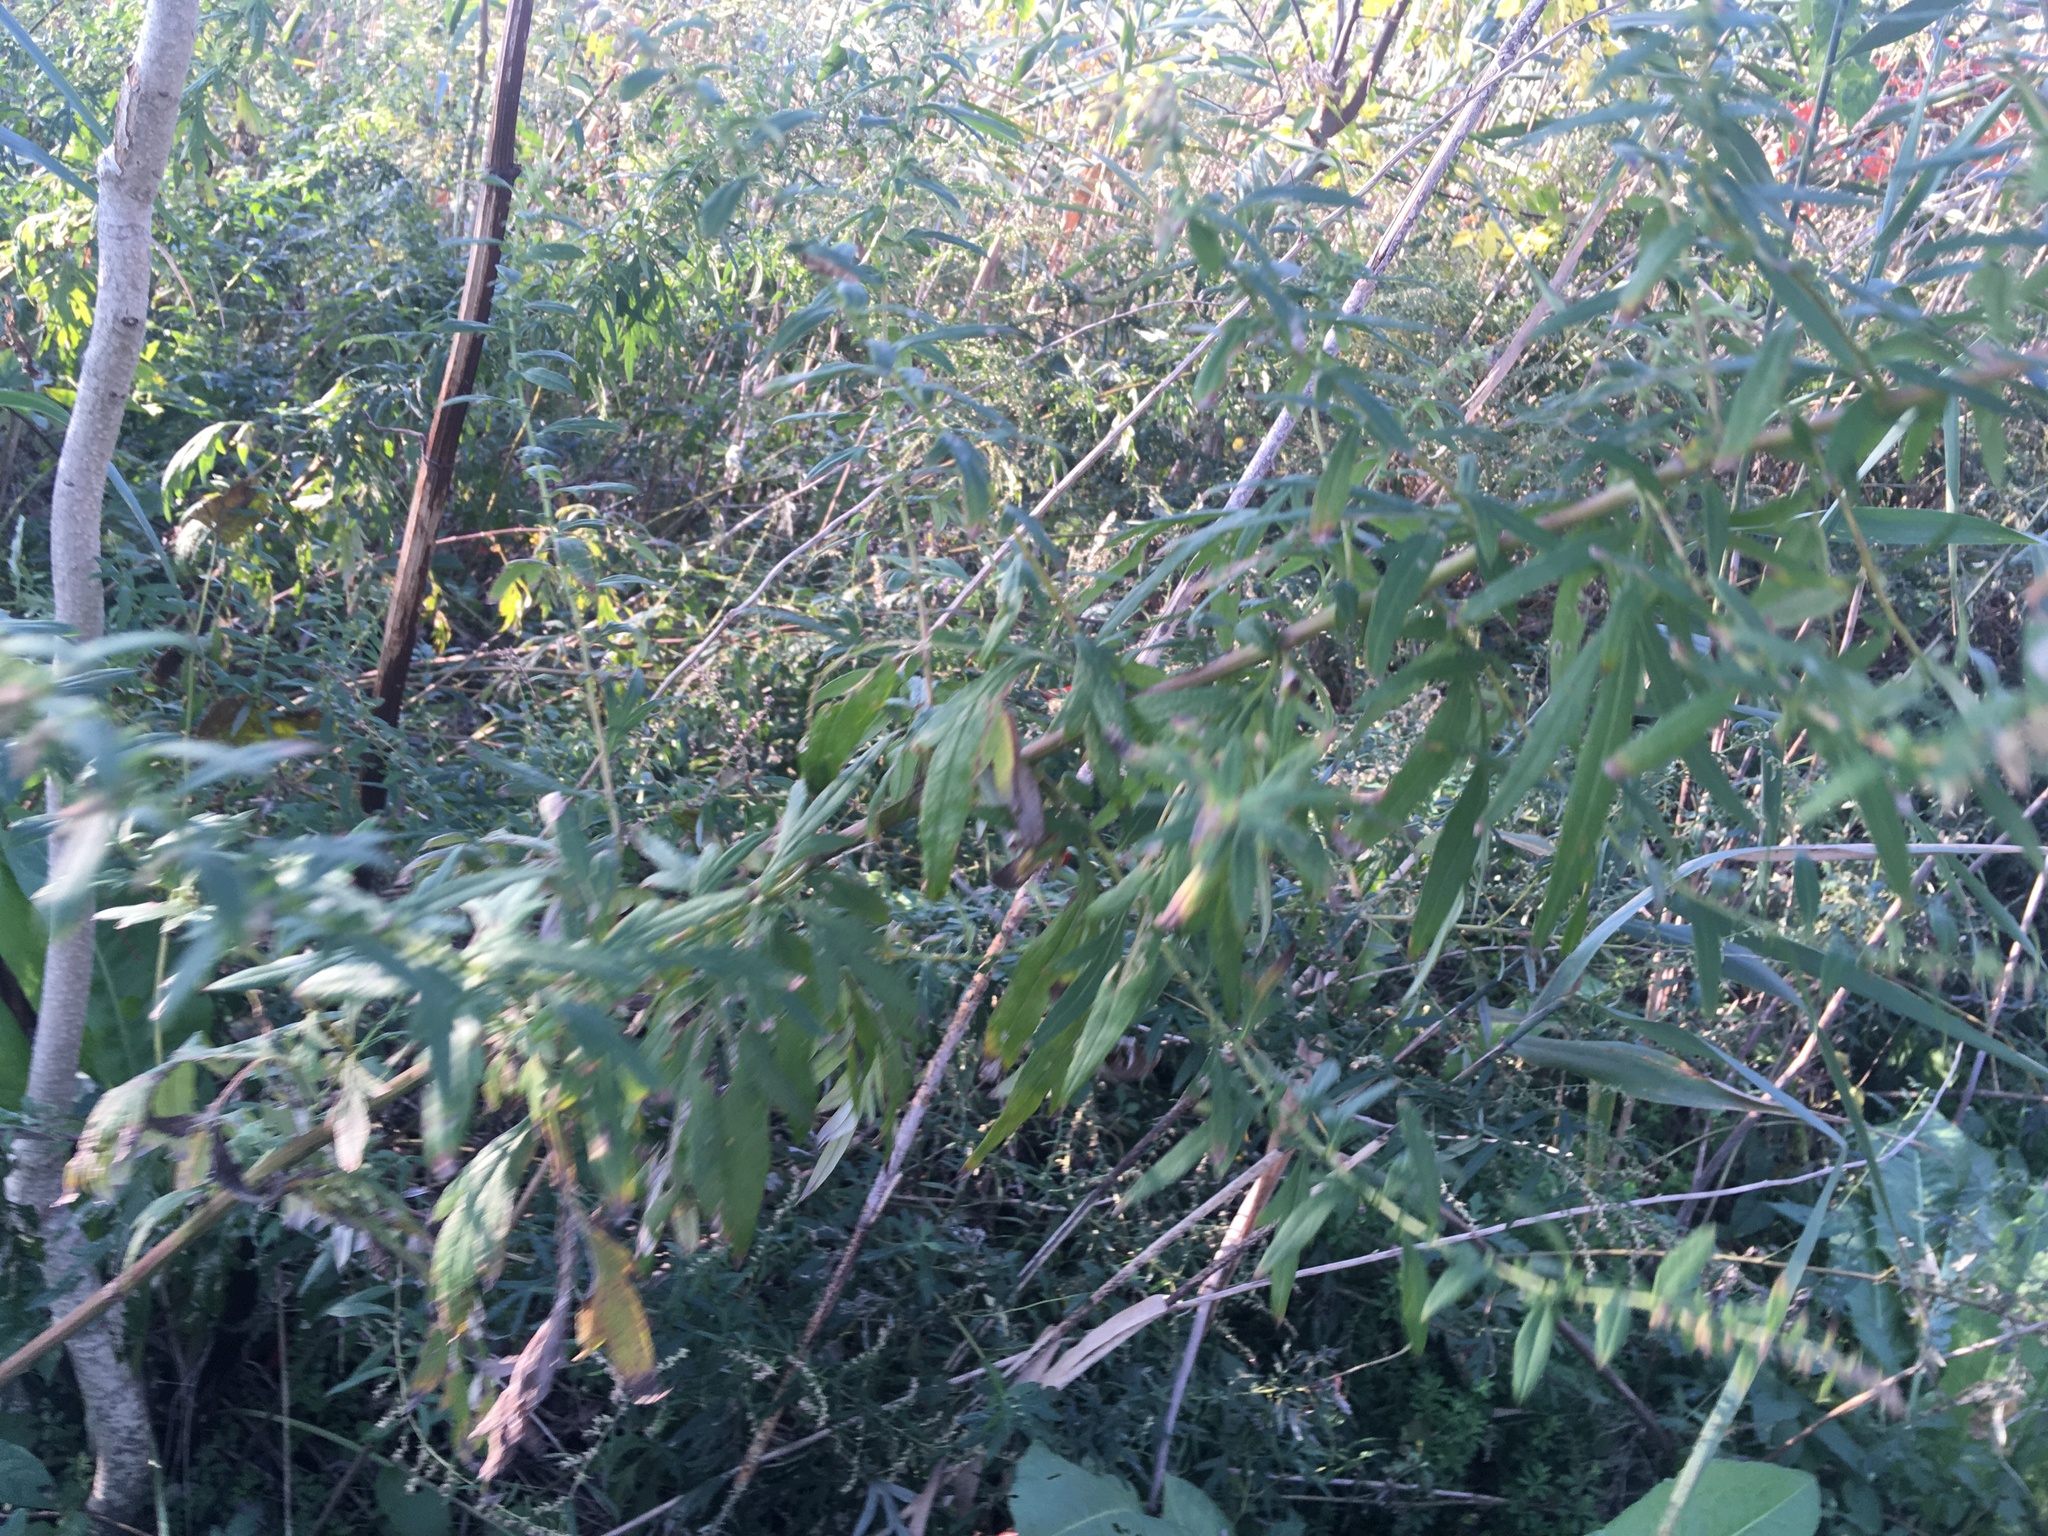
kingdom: Plantae
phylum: Tracheophyta
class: Magnoliopsida
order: Asterales
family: Asteraceae
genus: Artemisia
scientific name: Artemisia vulgaris
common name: Mugwort
